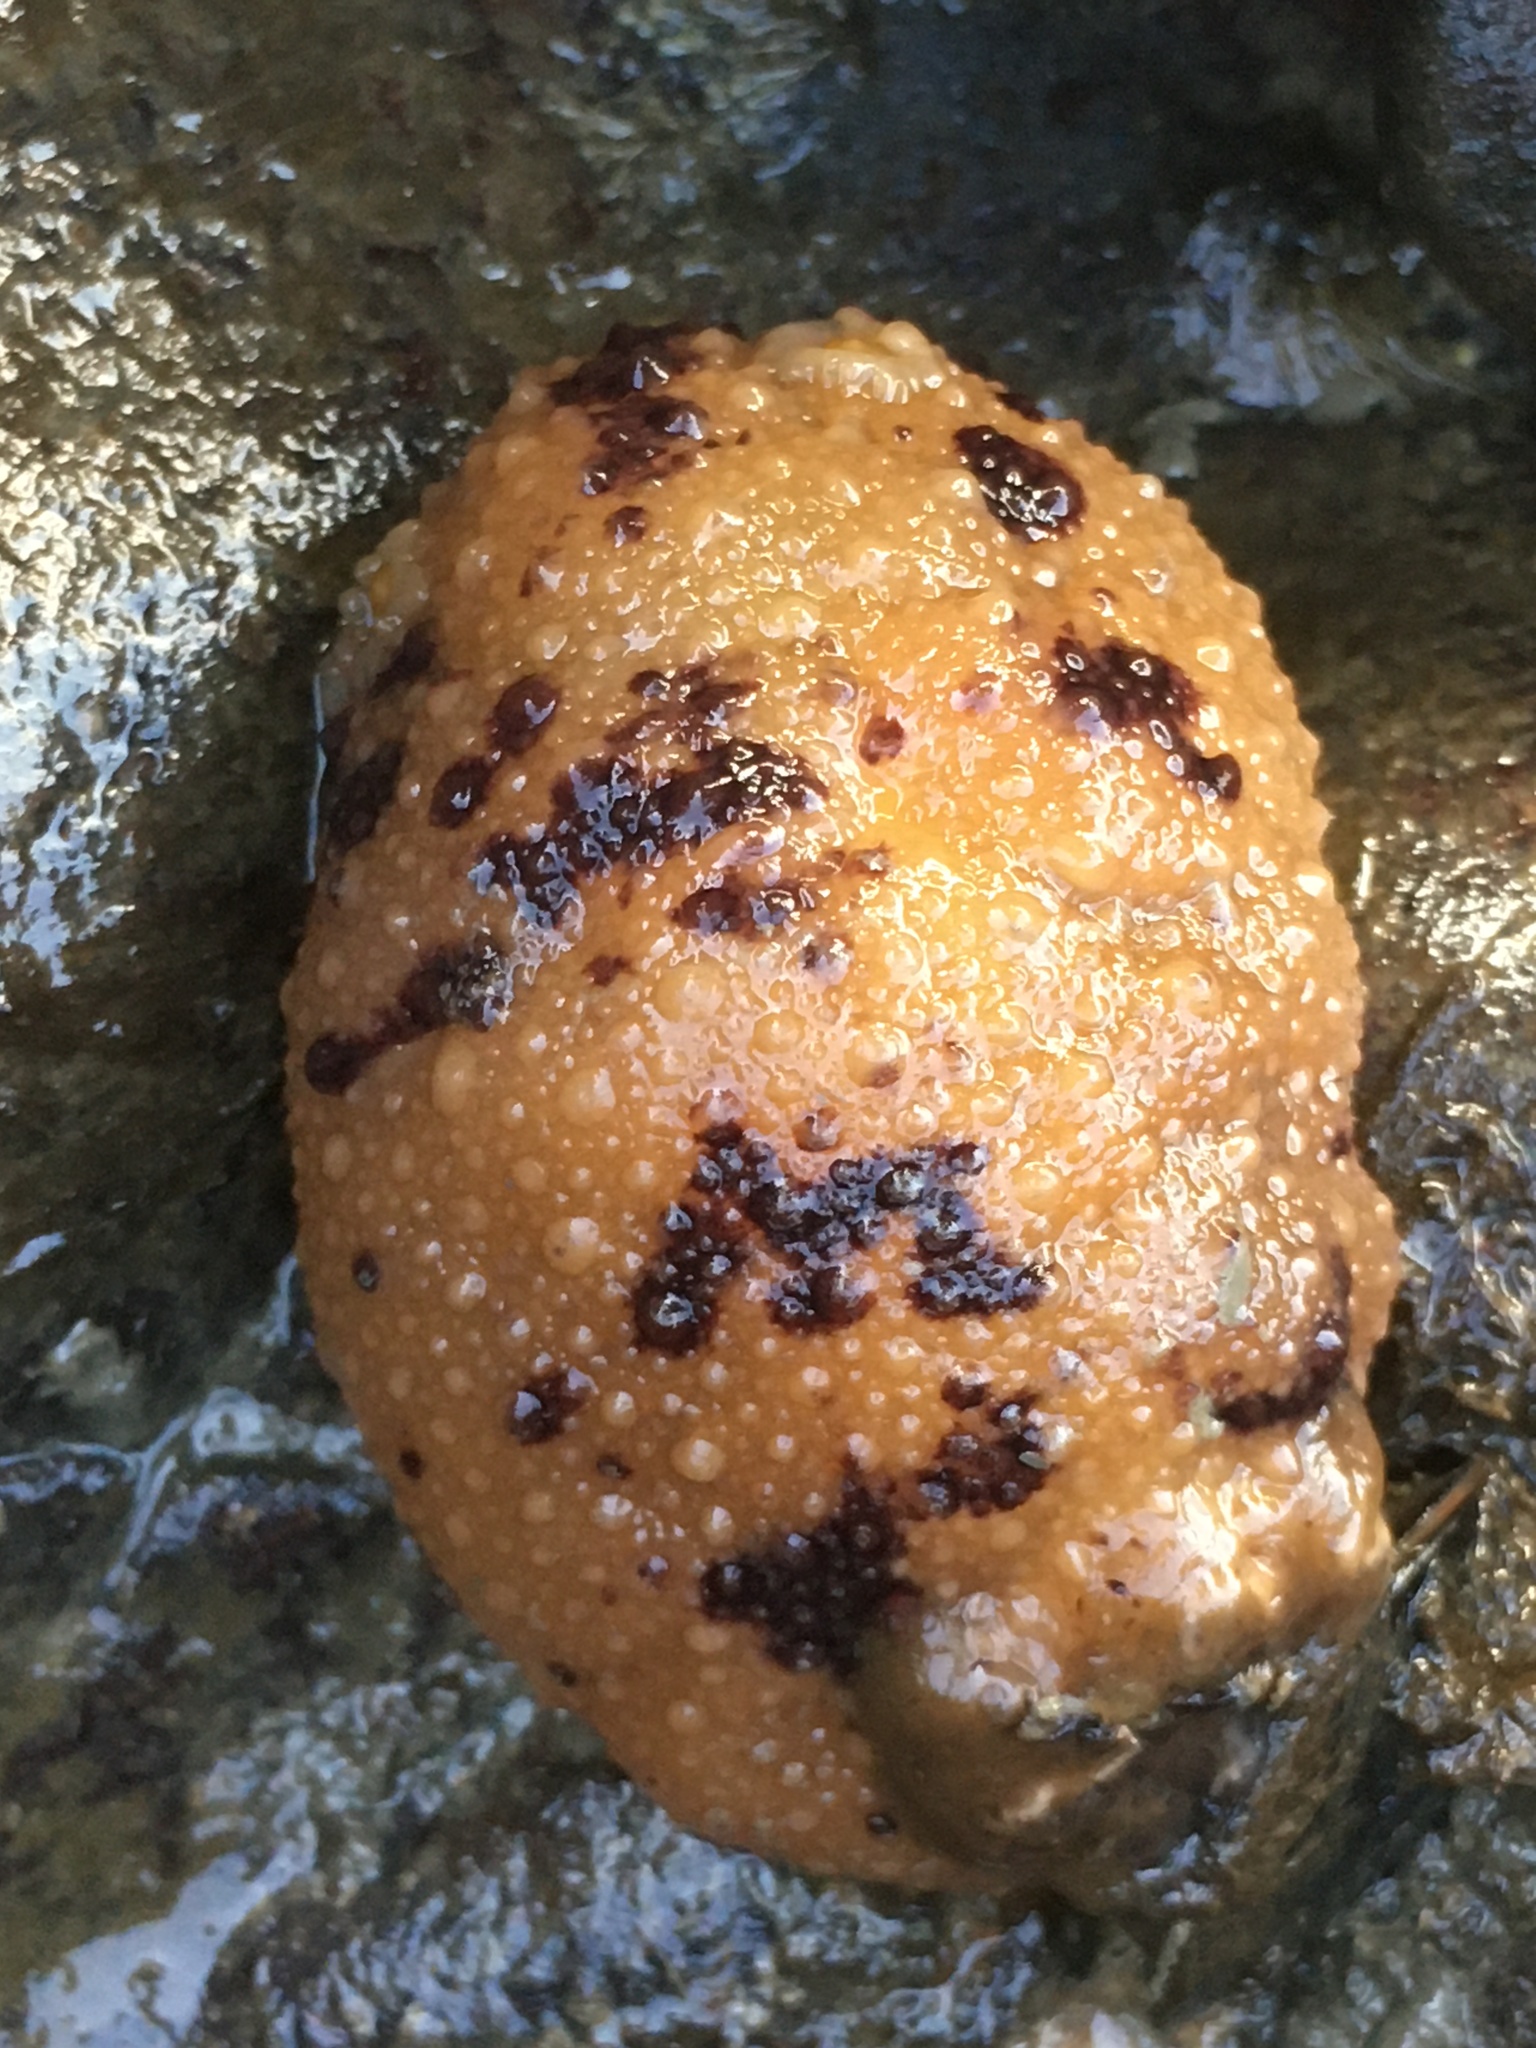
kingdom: Animalia
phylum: Mollusca
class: Gastropoda
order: Nudibranchia
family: Dorididae
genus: Doris
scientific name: Doris montereyensis
